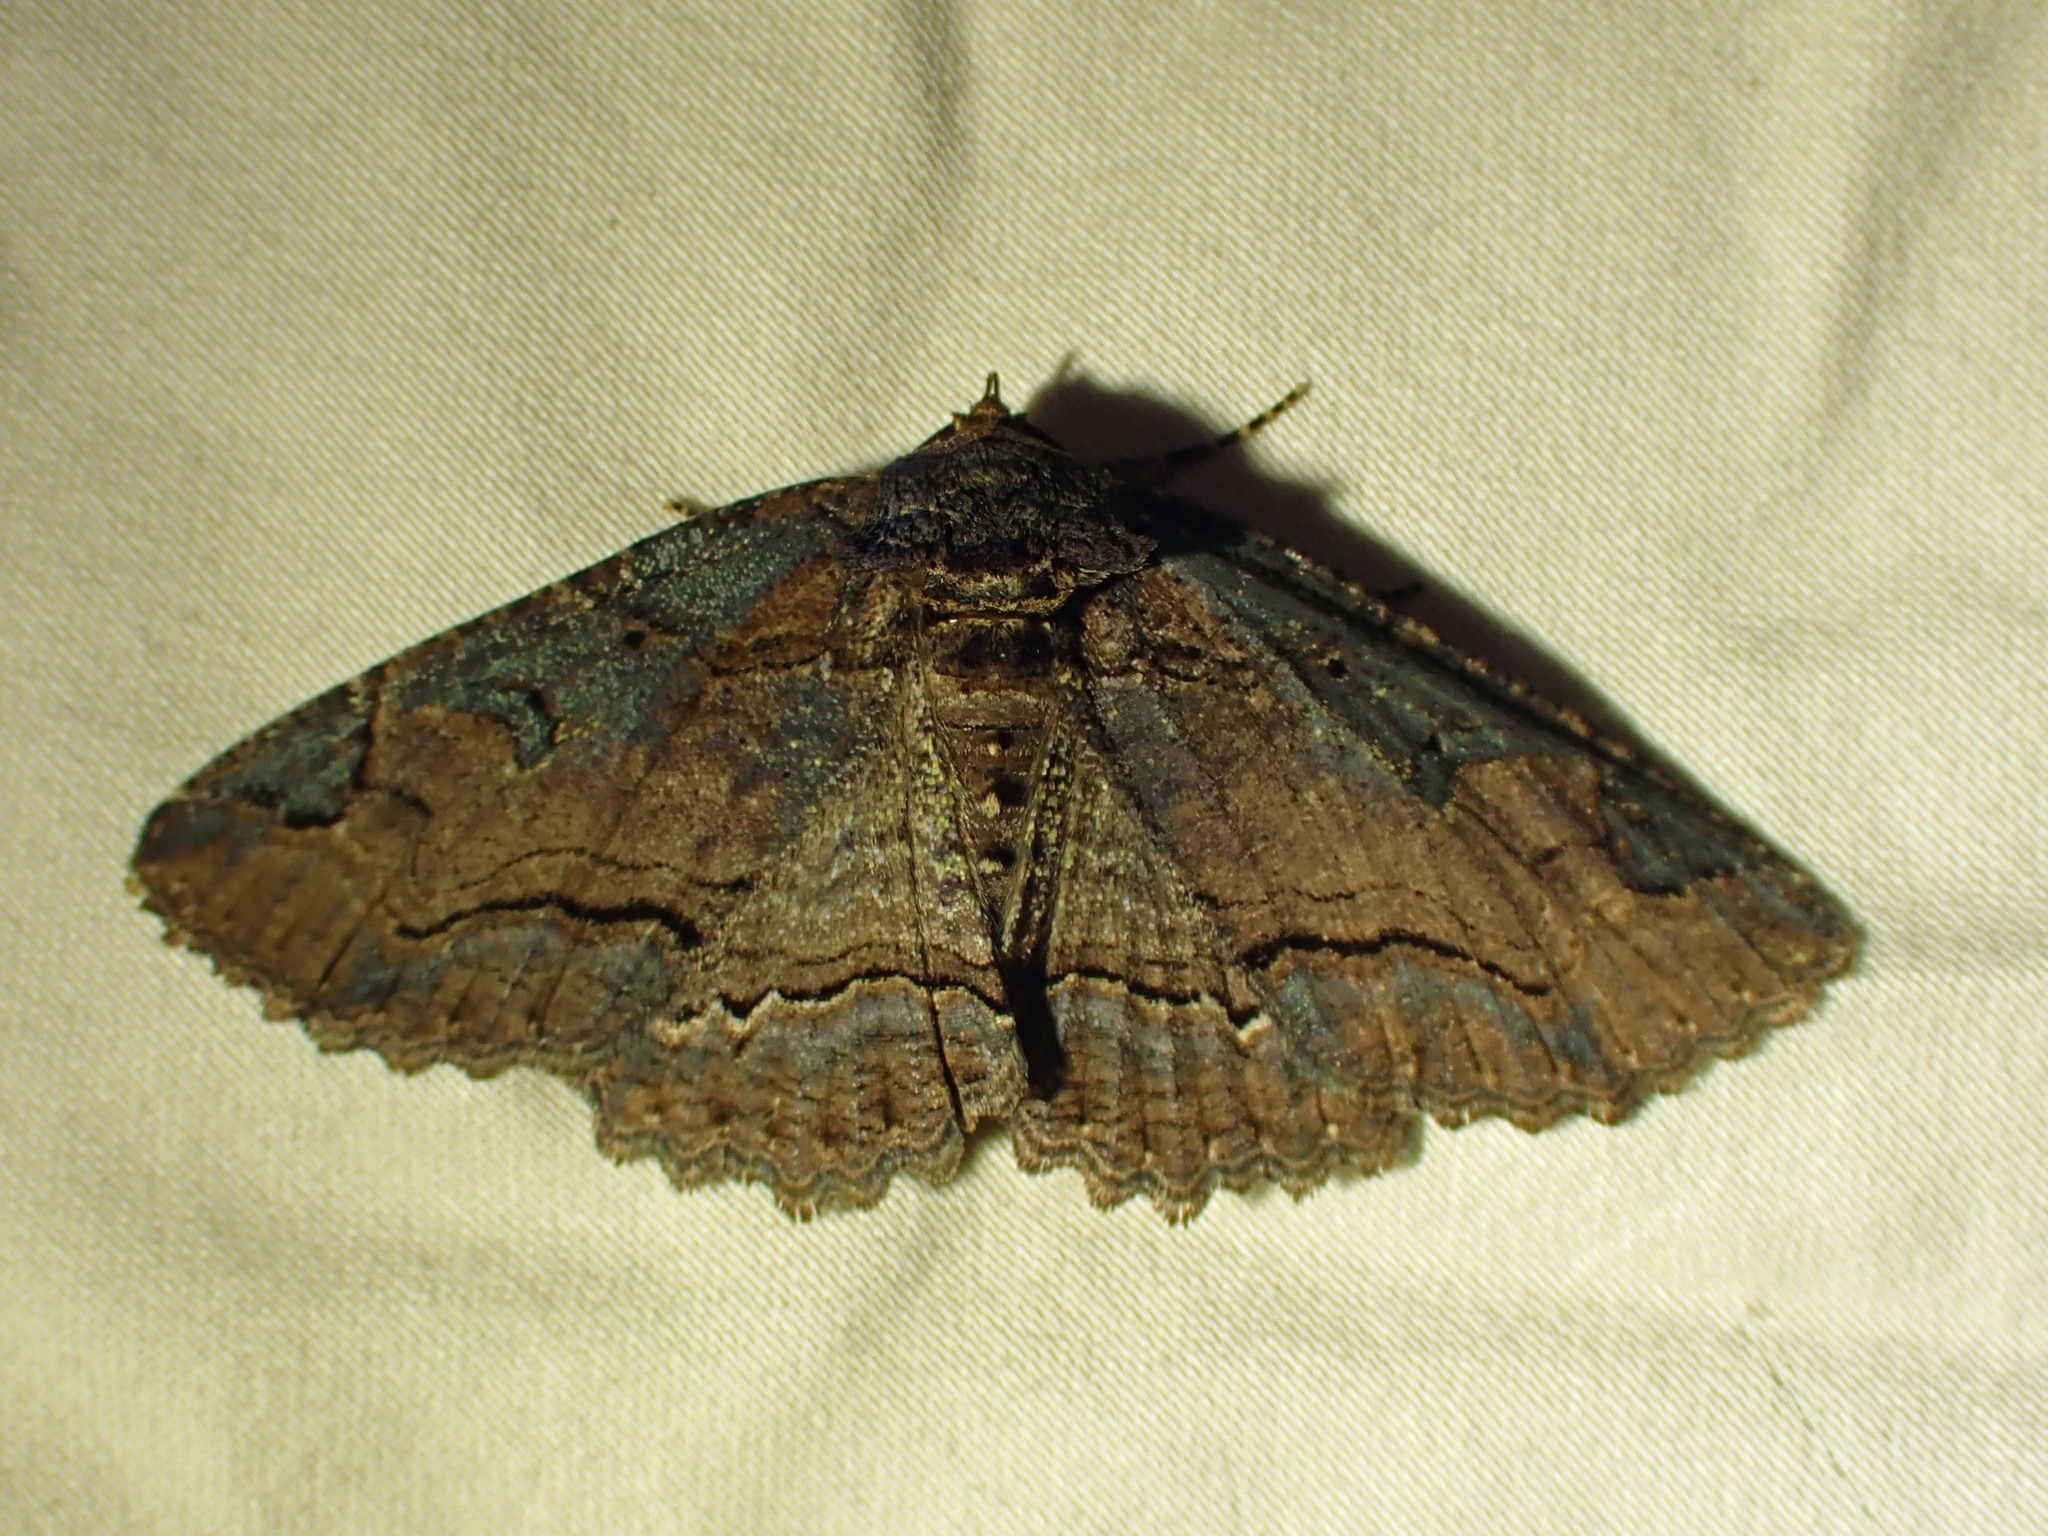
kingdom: Animalia
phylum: Arthropoda
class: Insecta
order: Lepidoptera
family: Erebidae
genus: Zale
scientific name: Zale minerea
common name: Colorful zale moth
